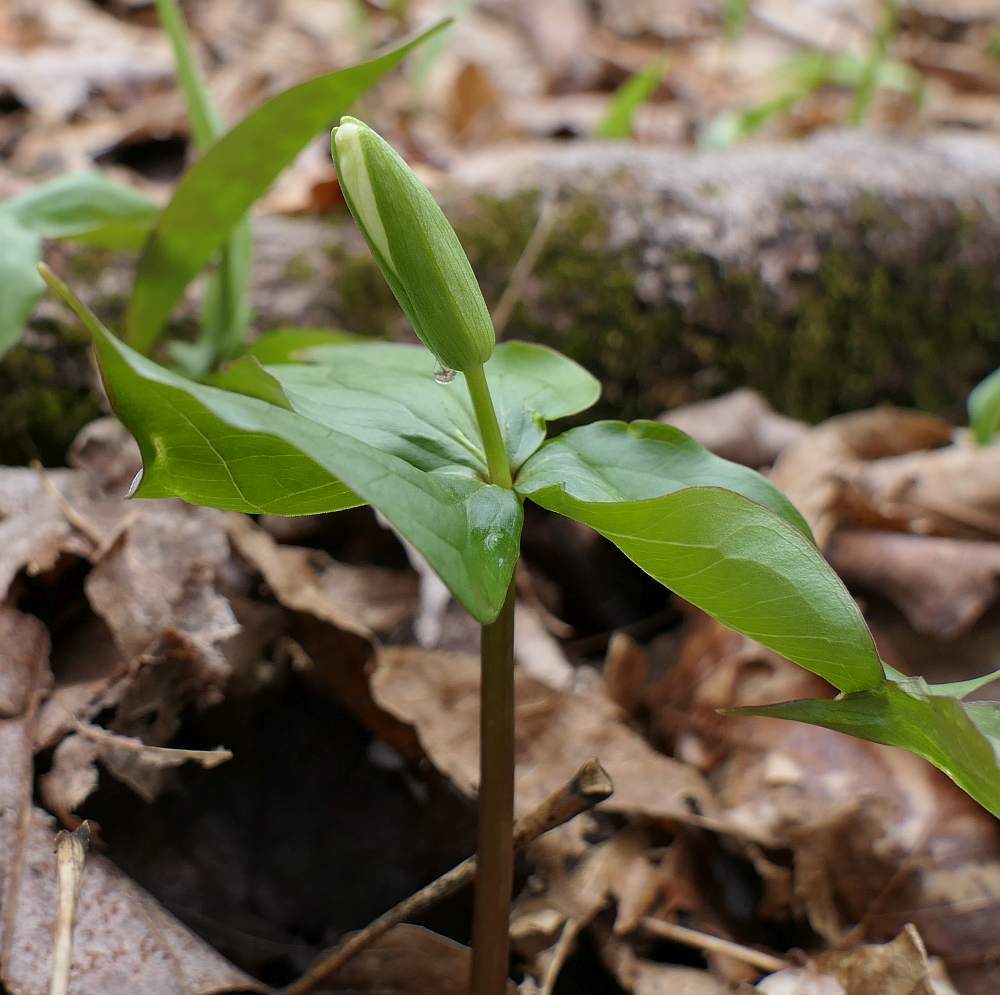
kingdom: Plantae
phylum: Tracheophyta
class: Liliopsida
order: Liliales
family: Melanthiaceae
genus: Trillium
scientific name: Trillium grandiflorum
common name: Great white trillium
